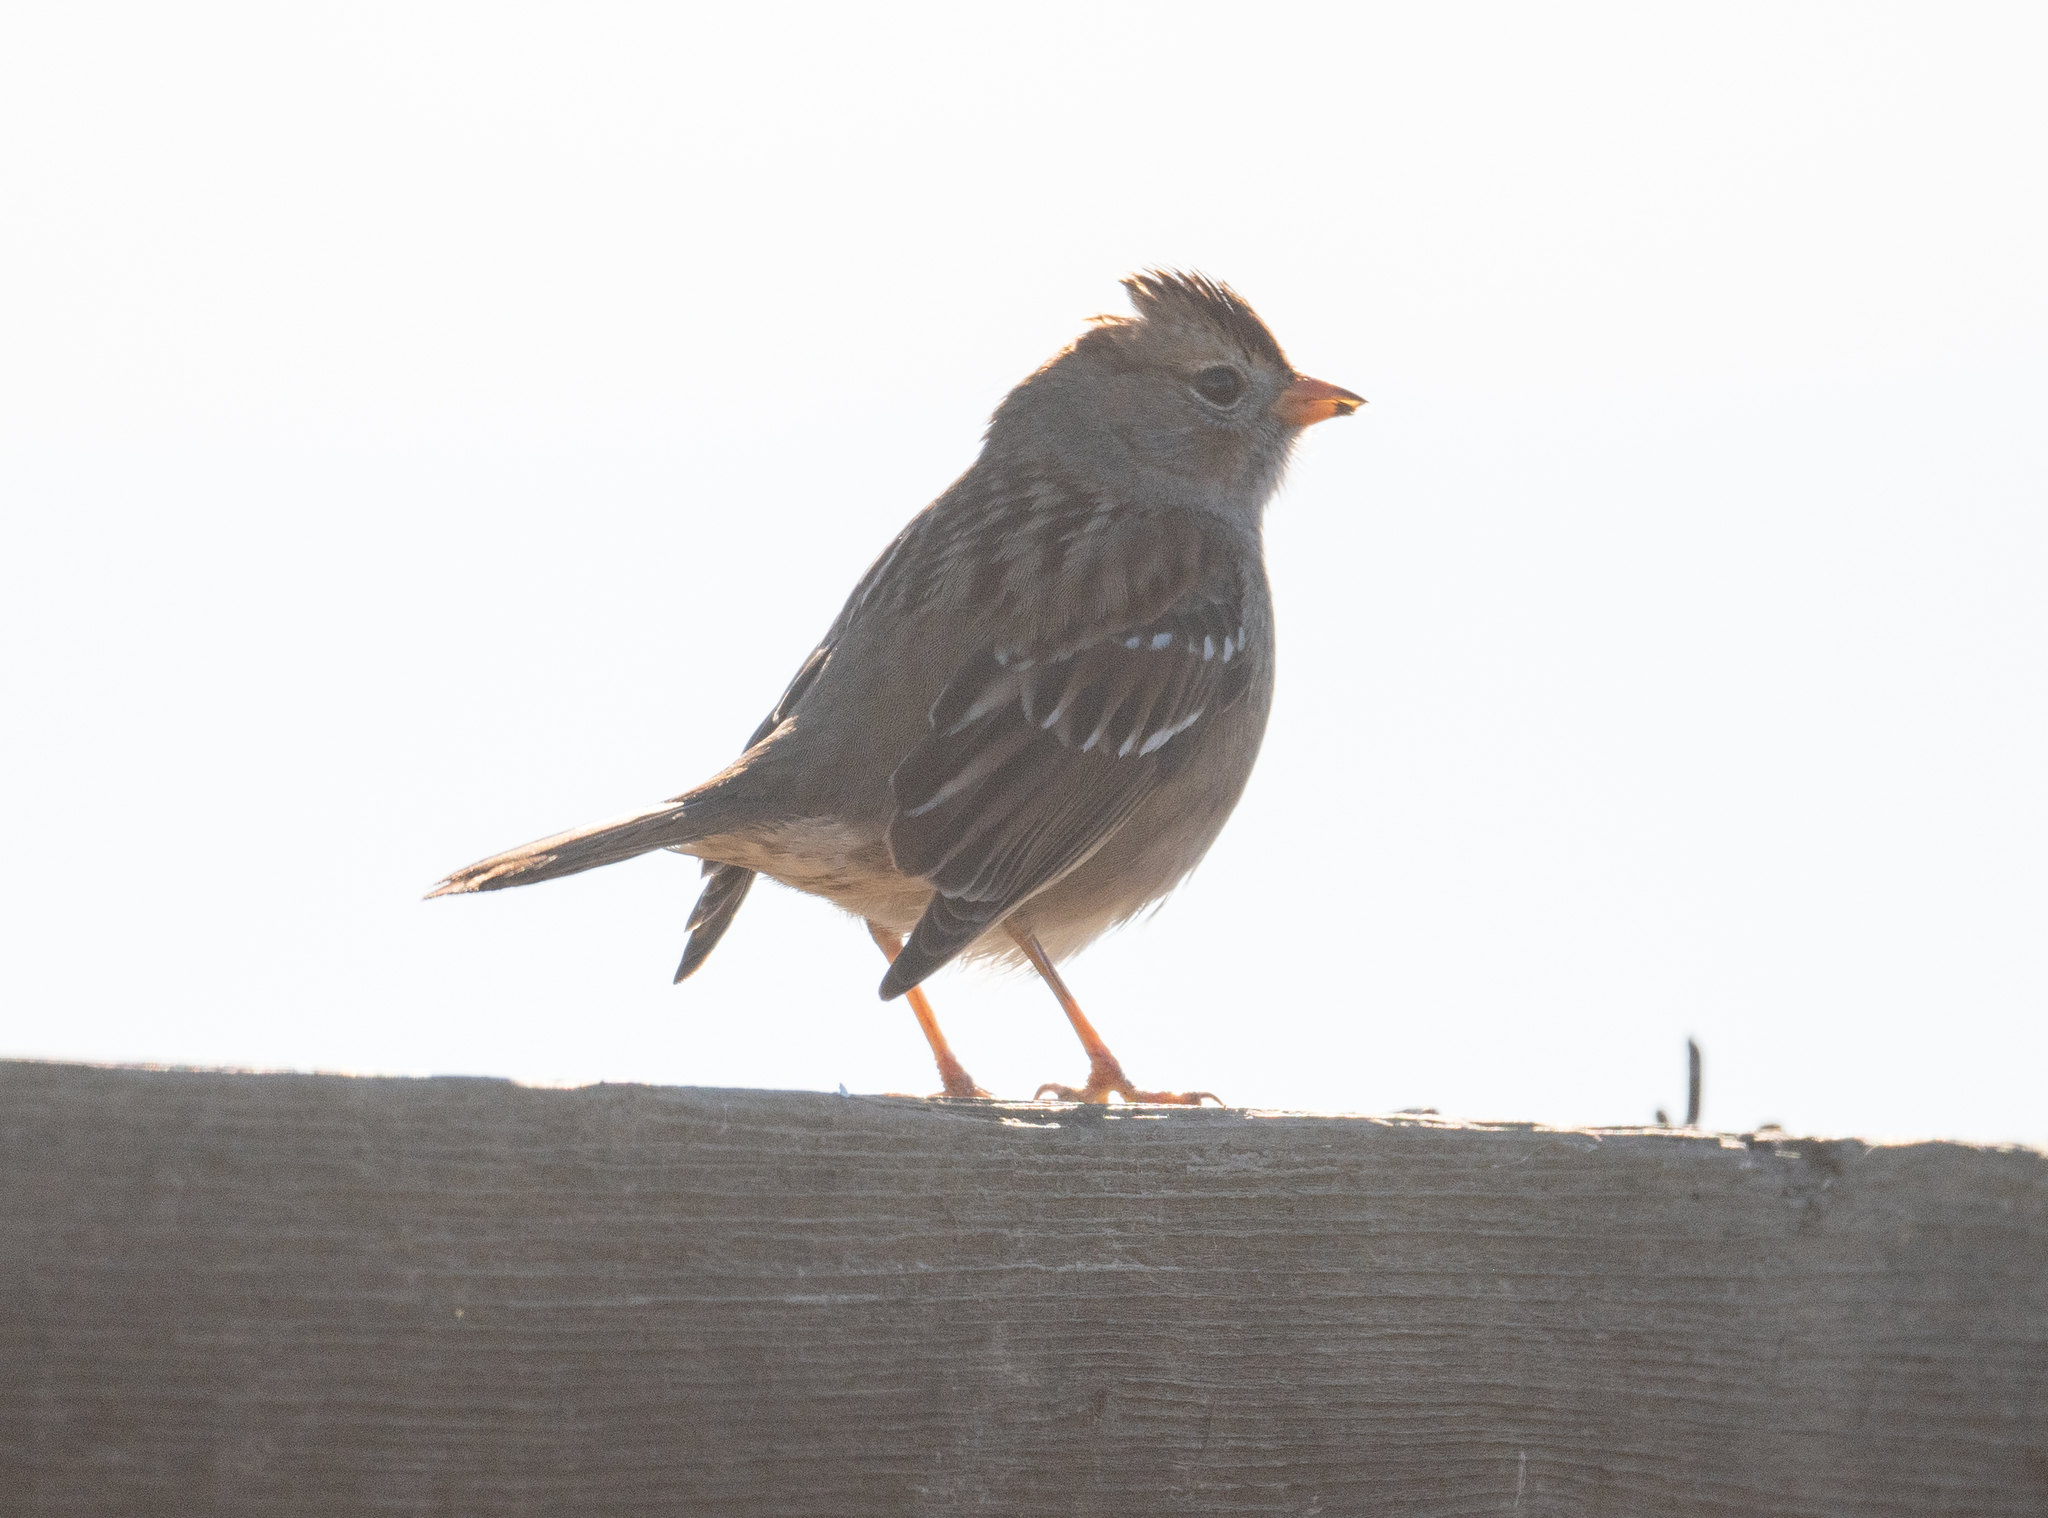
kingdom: Animalia
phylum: Chordata
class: Aves
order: Passeriformes
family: Passerellidae
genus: Zonotrichia
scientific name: Zonotrichia leucophrys
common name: White-crowned sparrow
